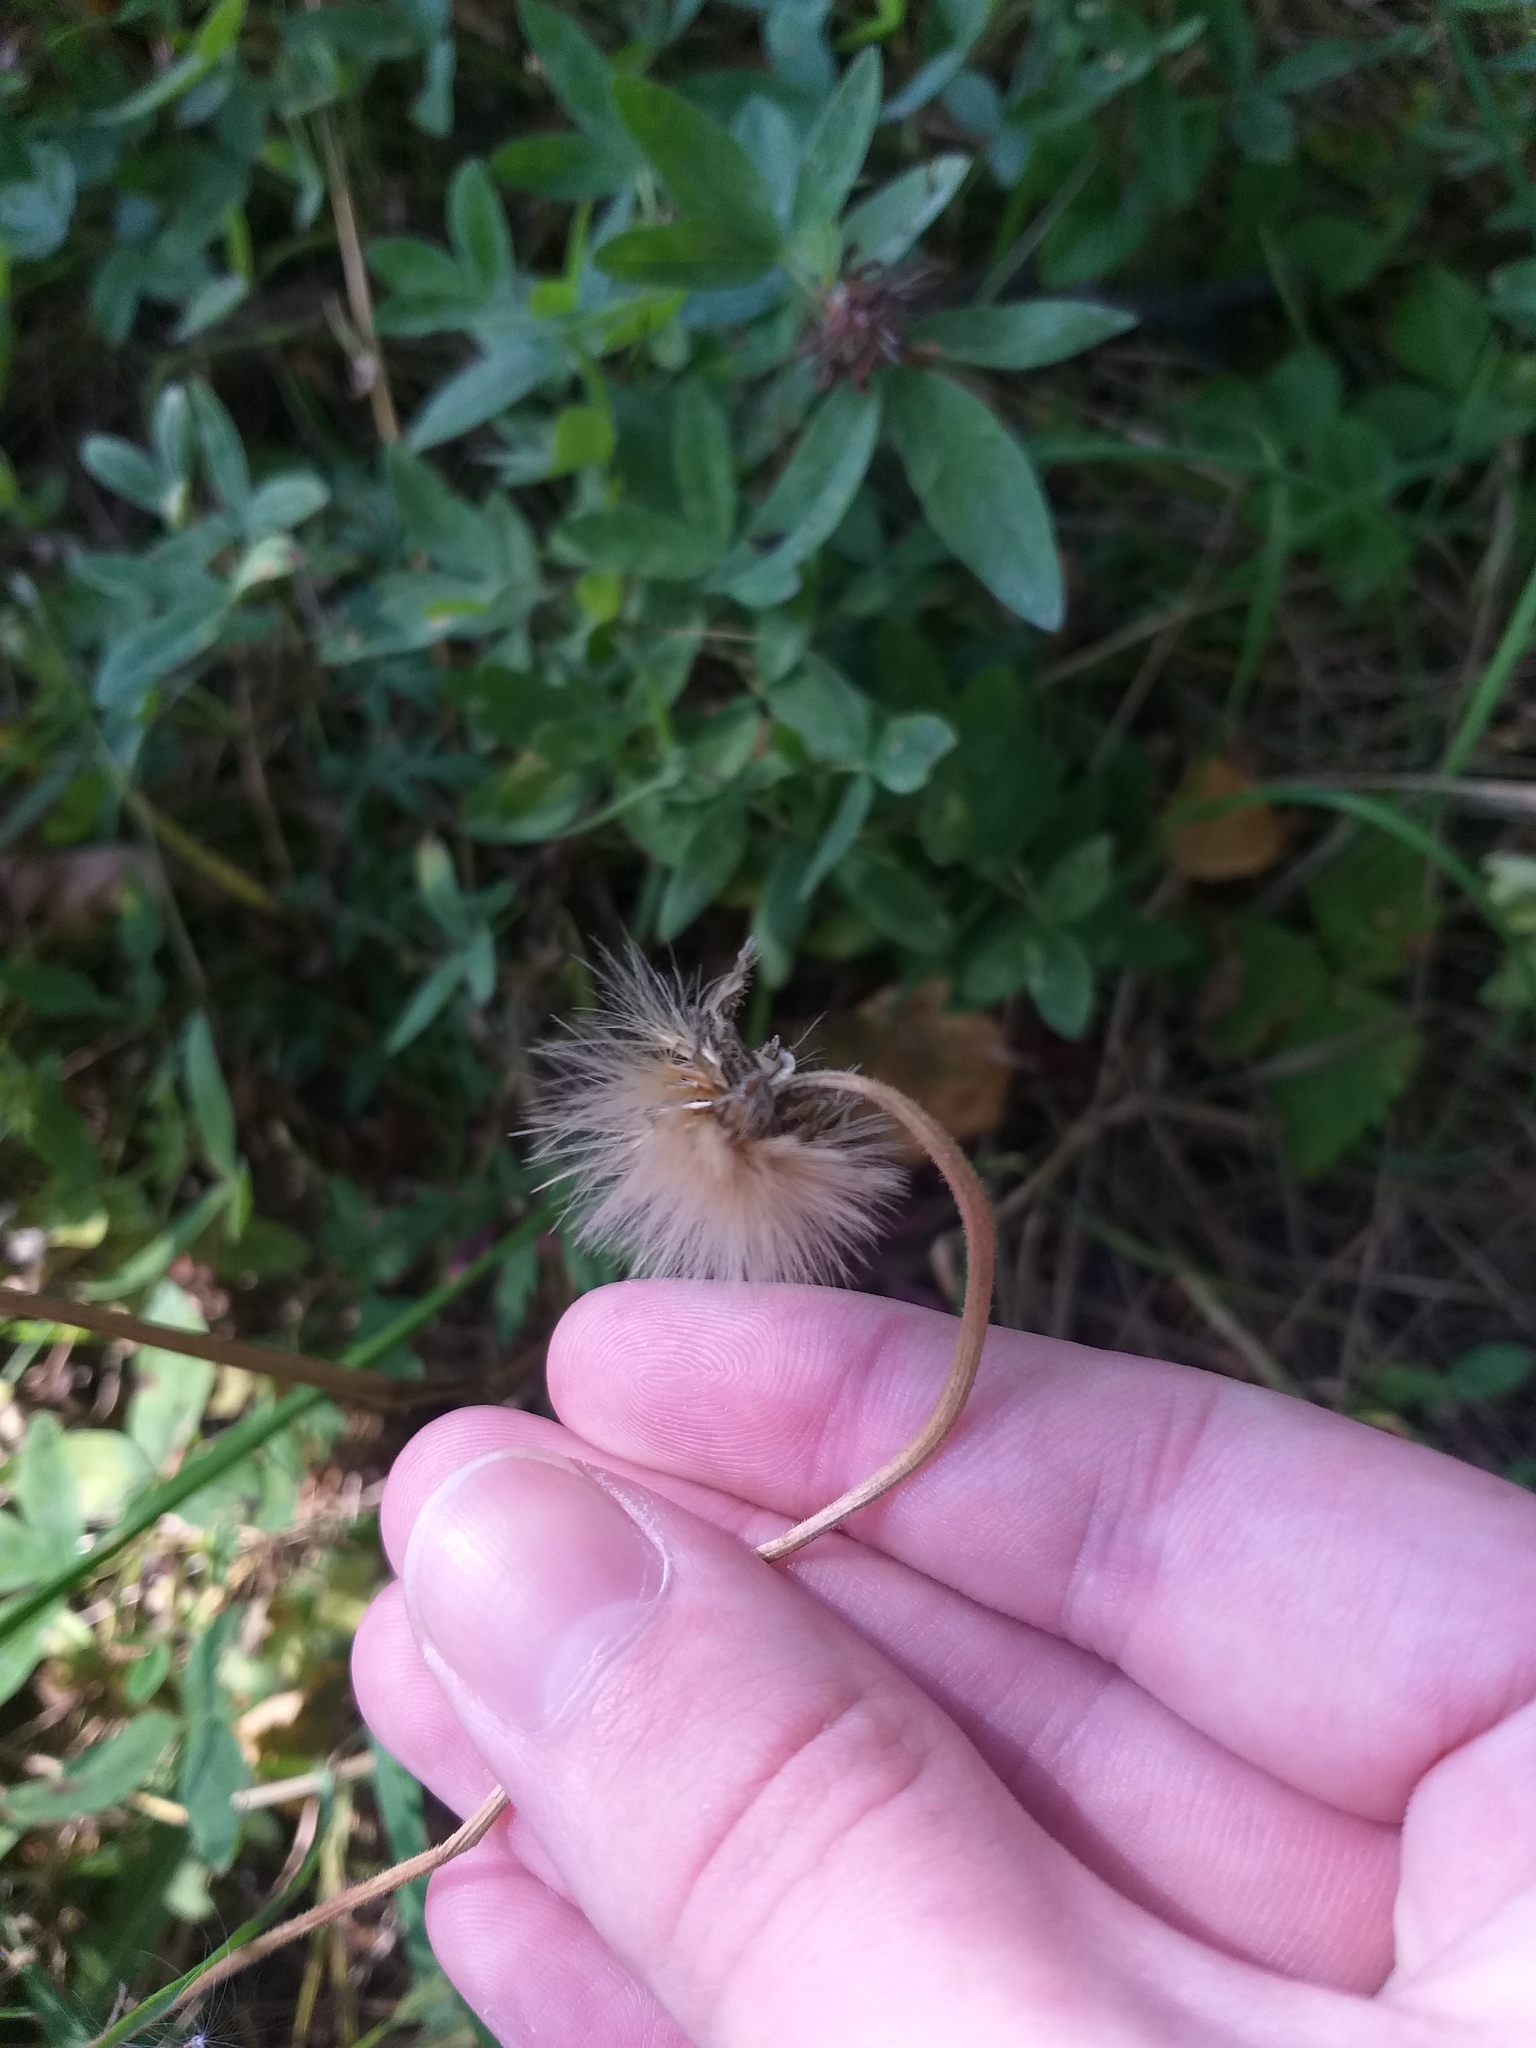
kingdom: Plantae
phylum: Tracheophyta
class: Magnoliopsida
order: Asterales
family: Asteraceae
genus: Leontodon
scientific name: Leontodon hispidus
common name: Rough hawkbit
